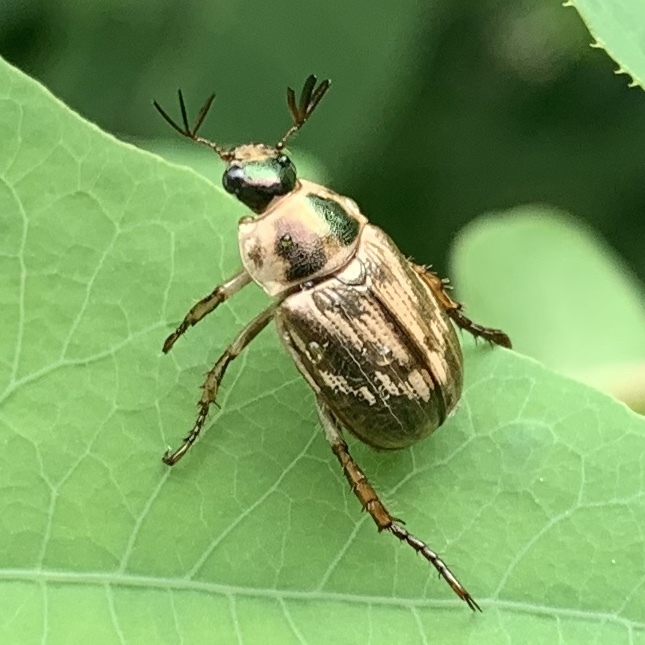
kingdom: Animalia
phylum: Arthropoda
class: Insecta
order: Coleoptera
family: Scarabaeidae
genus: Exomala
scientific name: Exomala orientalis
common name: Oriental beetle
